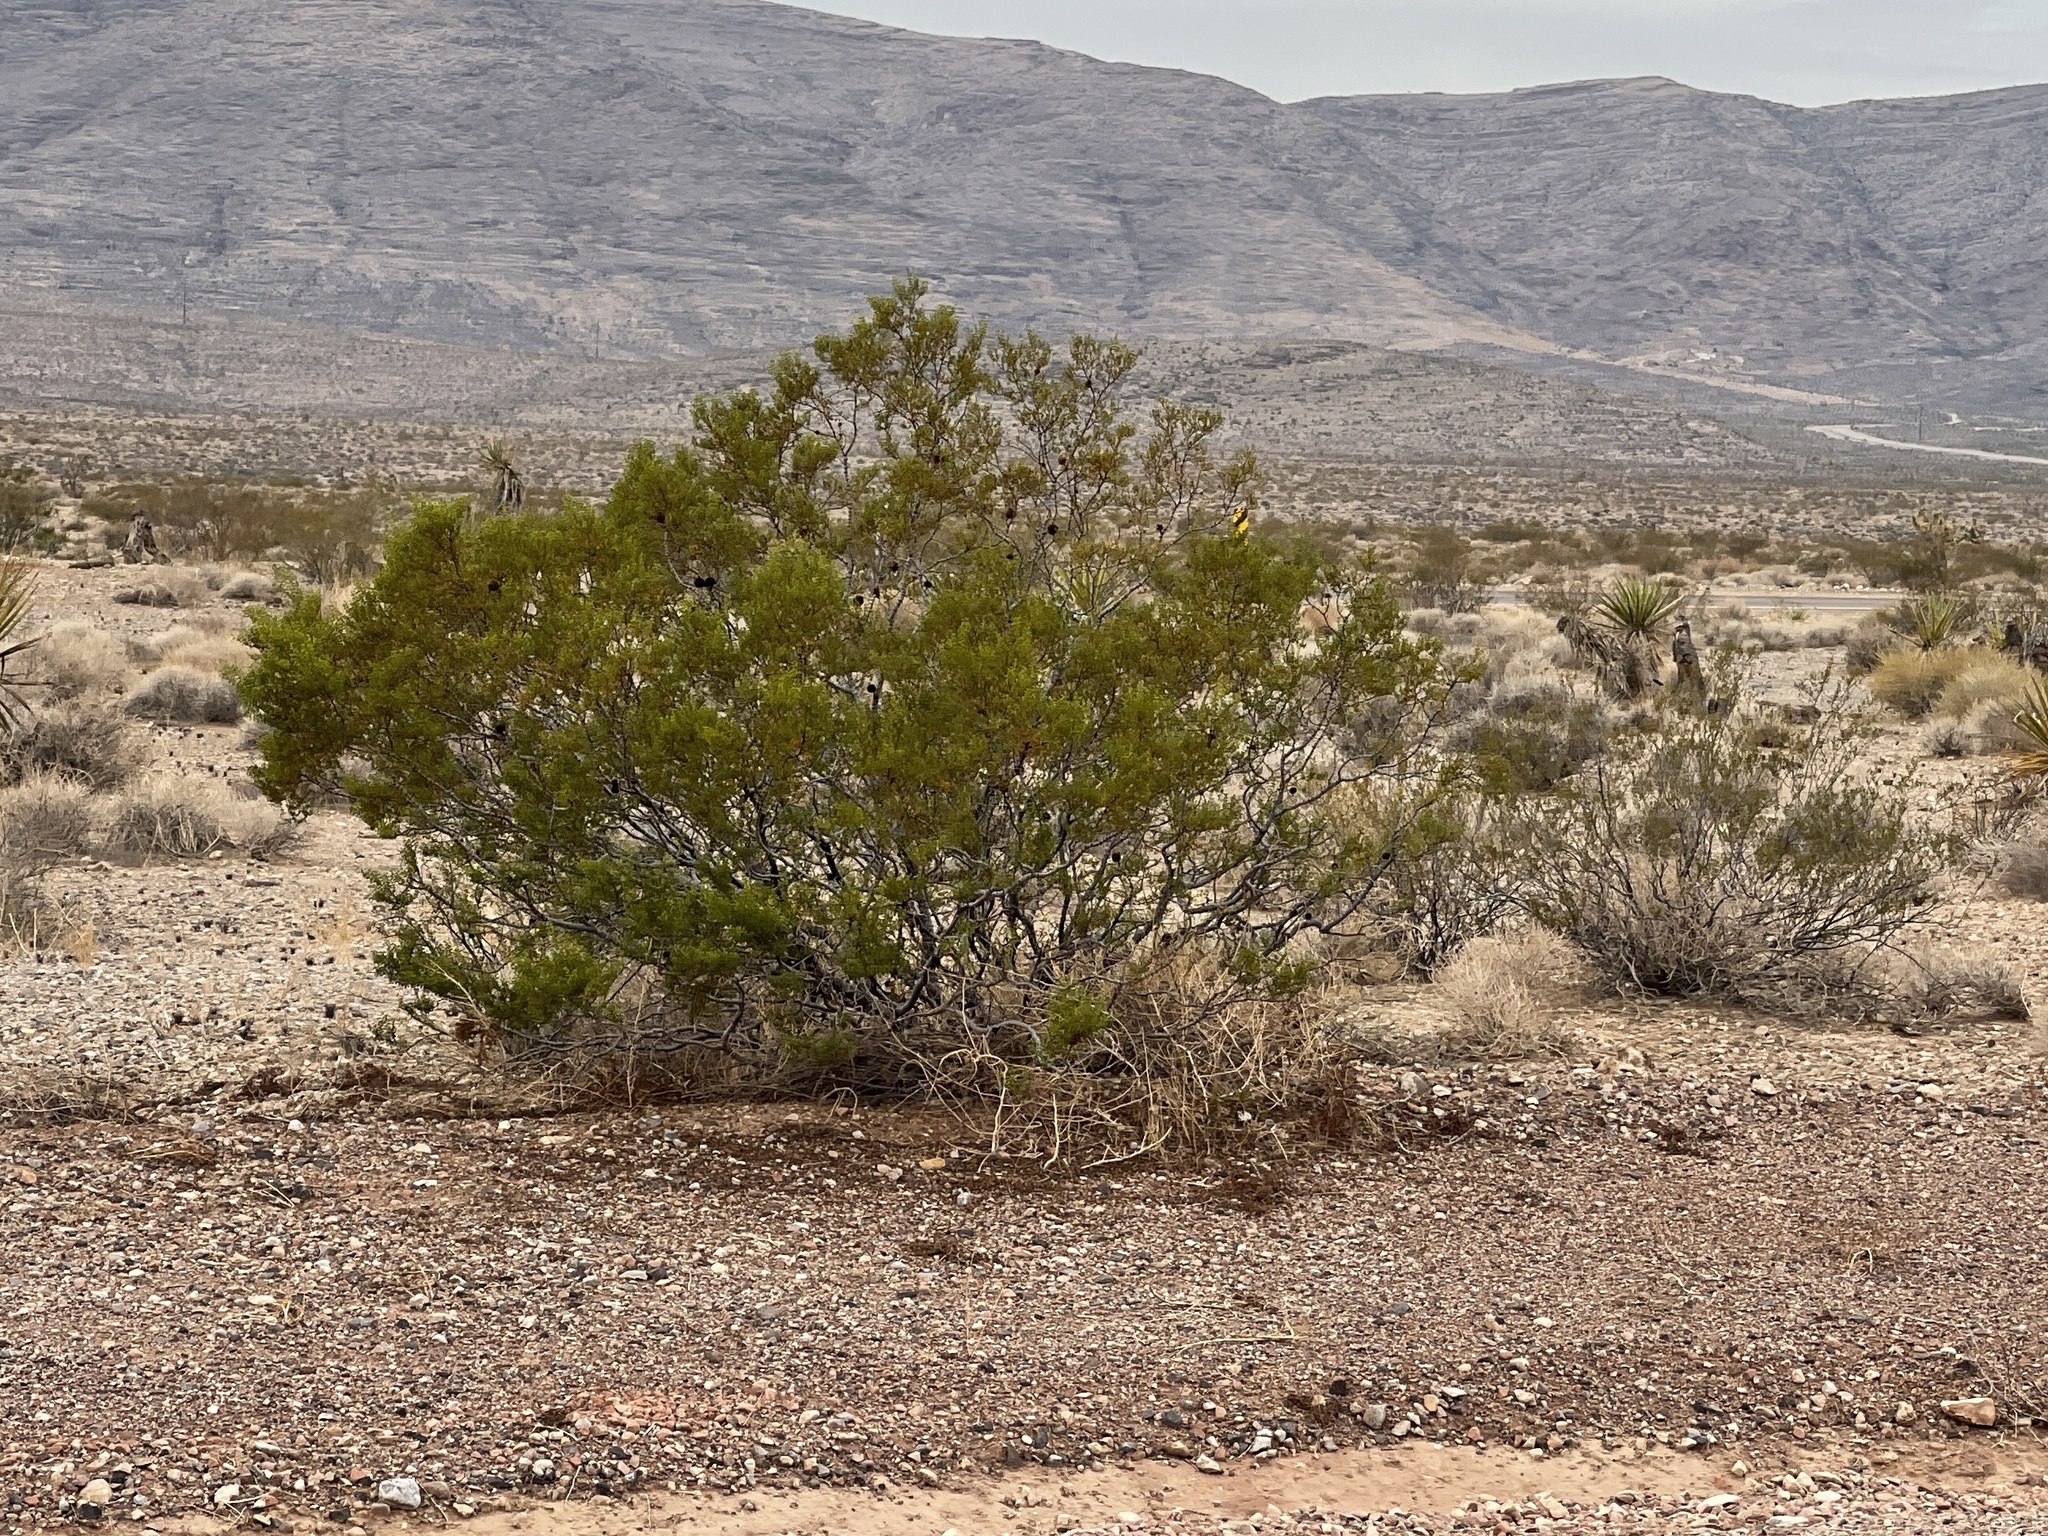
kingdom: Plantae
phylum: Tracheophyta
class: Magnoliopsida
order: Zygophyllales
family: Zygophyllaceae
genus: Larrea
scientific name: Larrea tridentata
